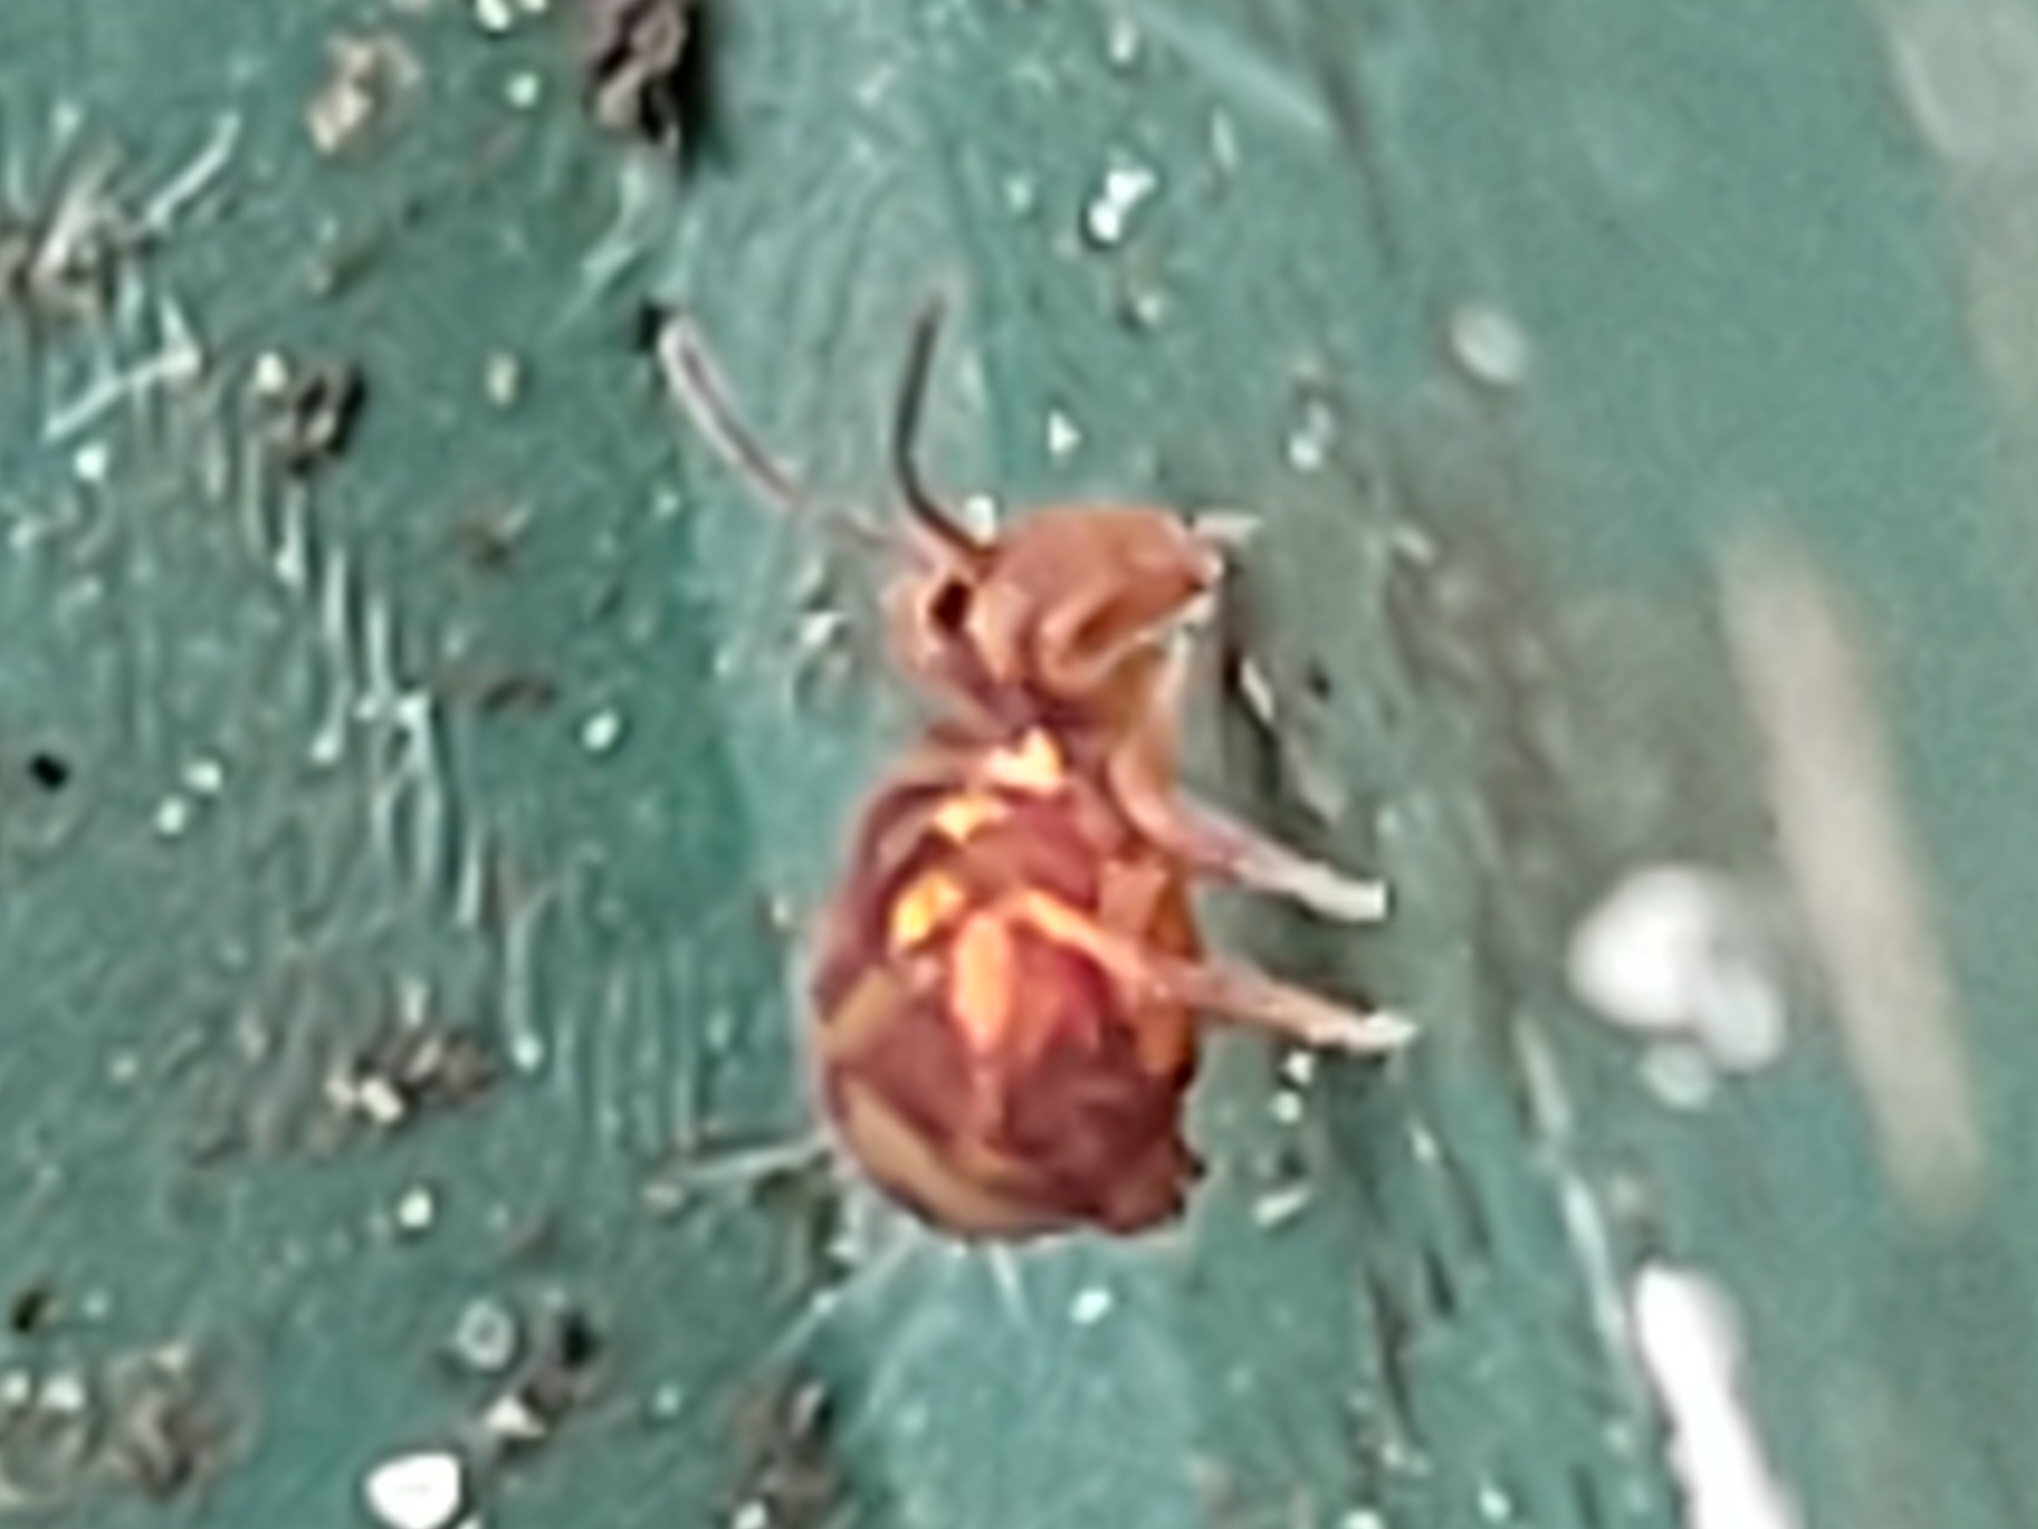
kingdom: Animalia
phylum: Arthropoda
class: Collembola
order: Symphypleona
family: Dicyrtomidae
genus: Dicyrtomina
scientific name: Dicyrtomina ornata
